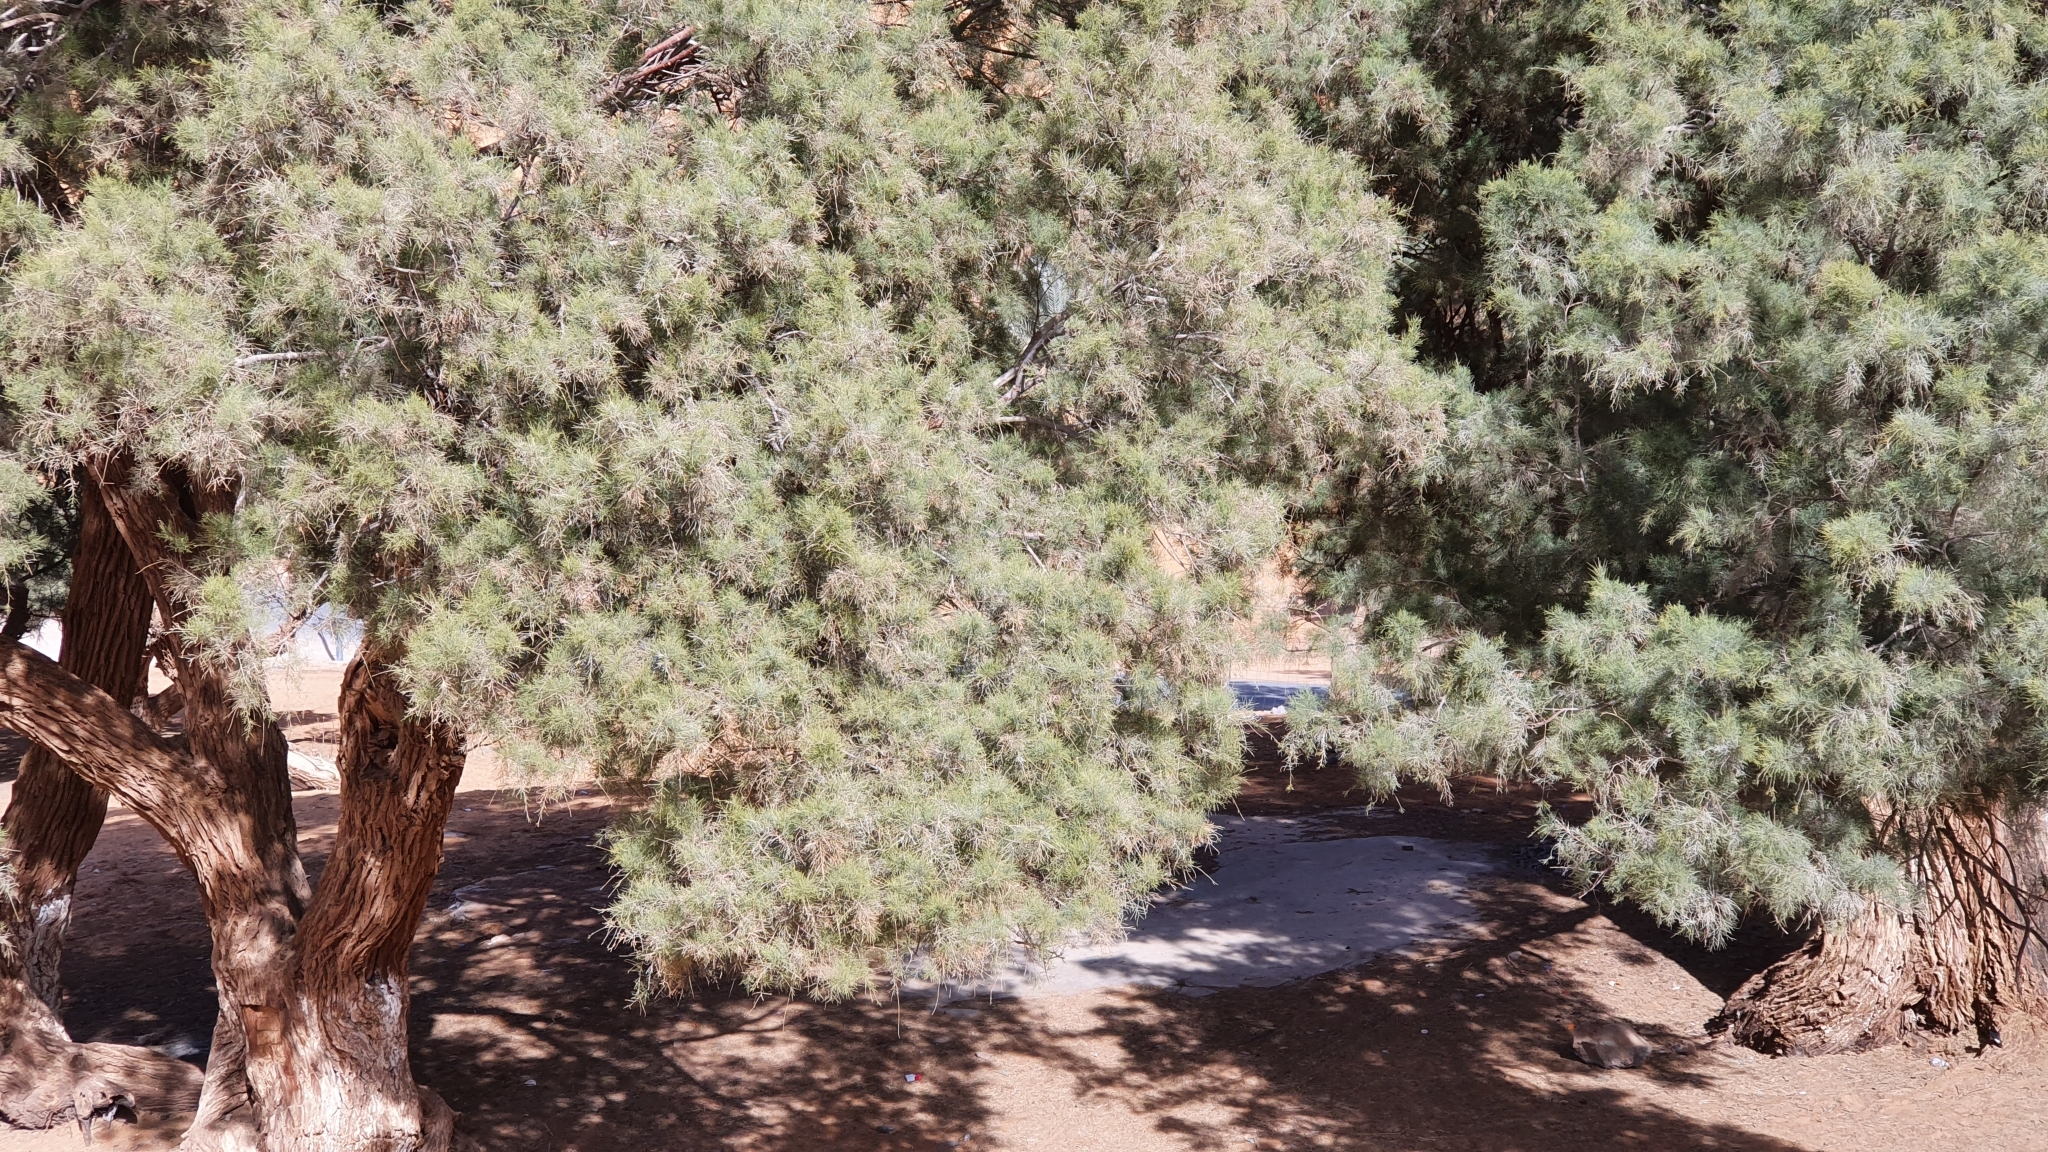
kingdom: Plantae
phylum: Tracheophyta
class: Magnoliopsida
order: Caryophyllales
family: Tamaricaceae
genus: Tamarix
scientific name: Tamarix aphylla
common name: Athel tamarisk
